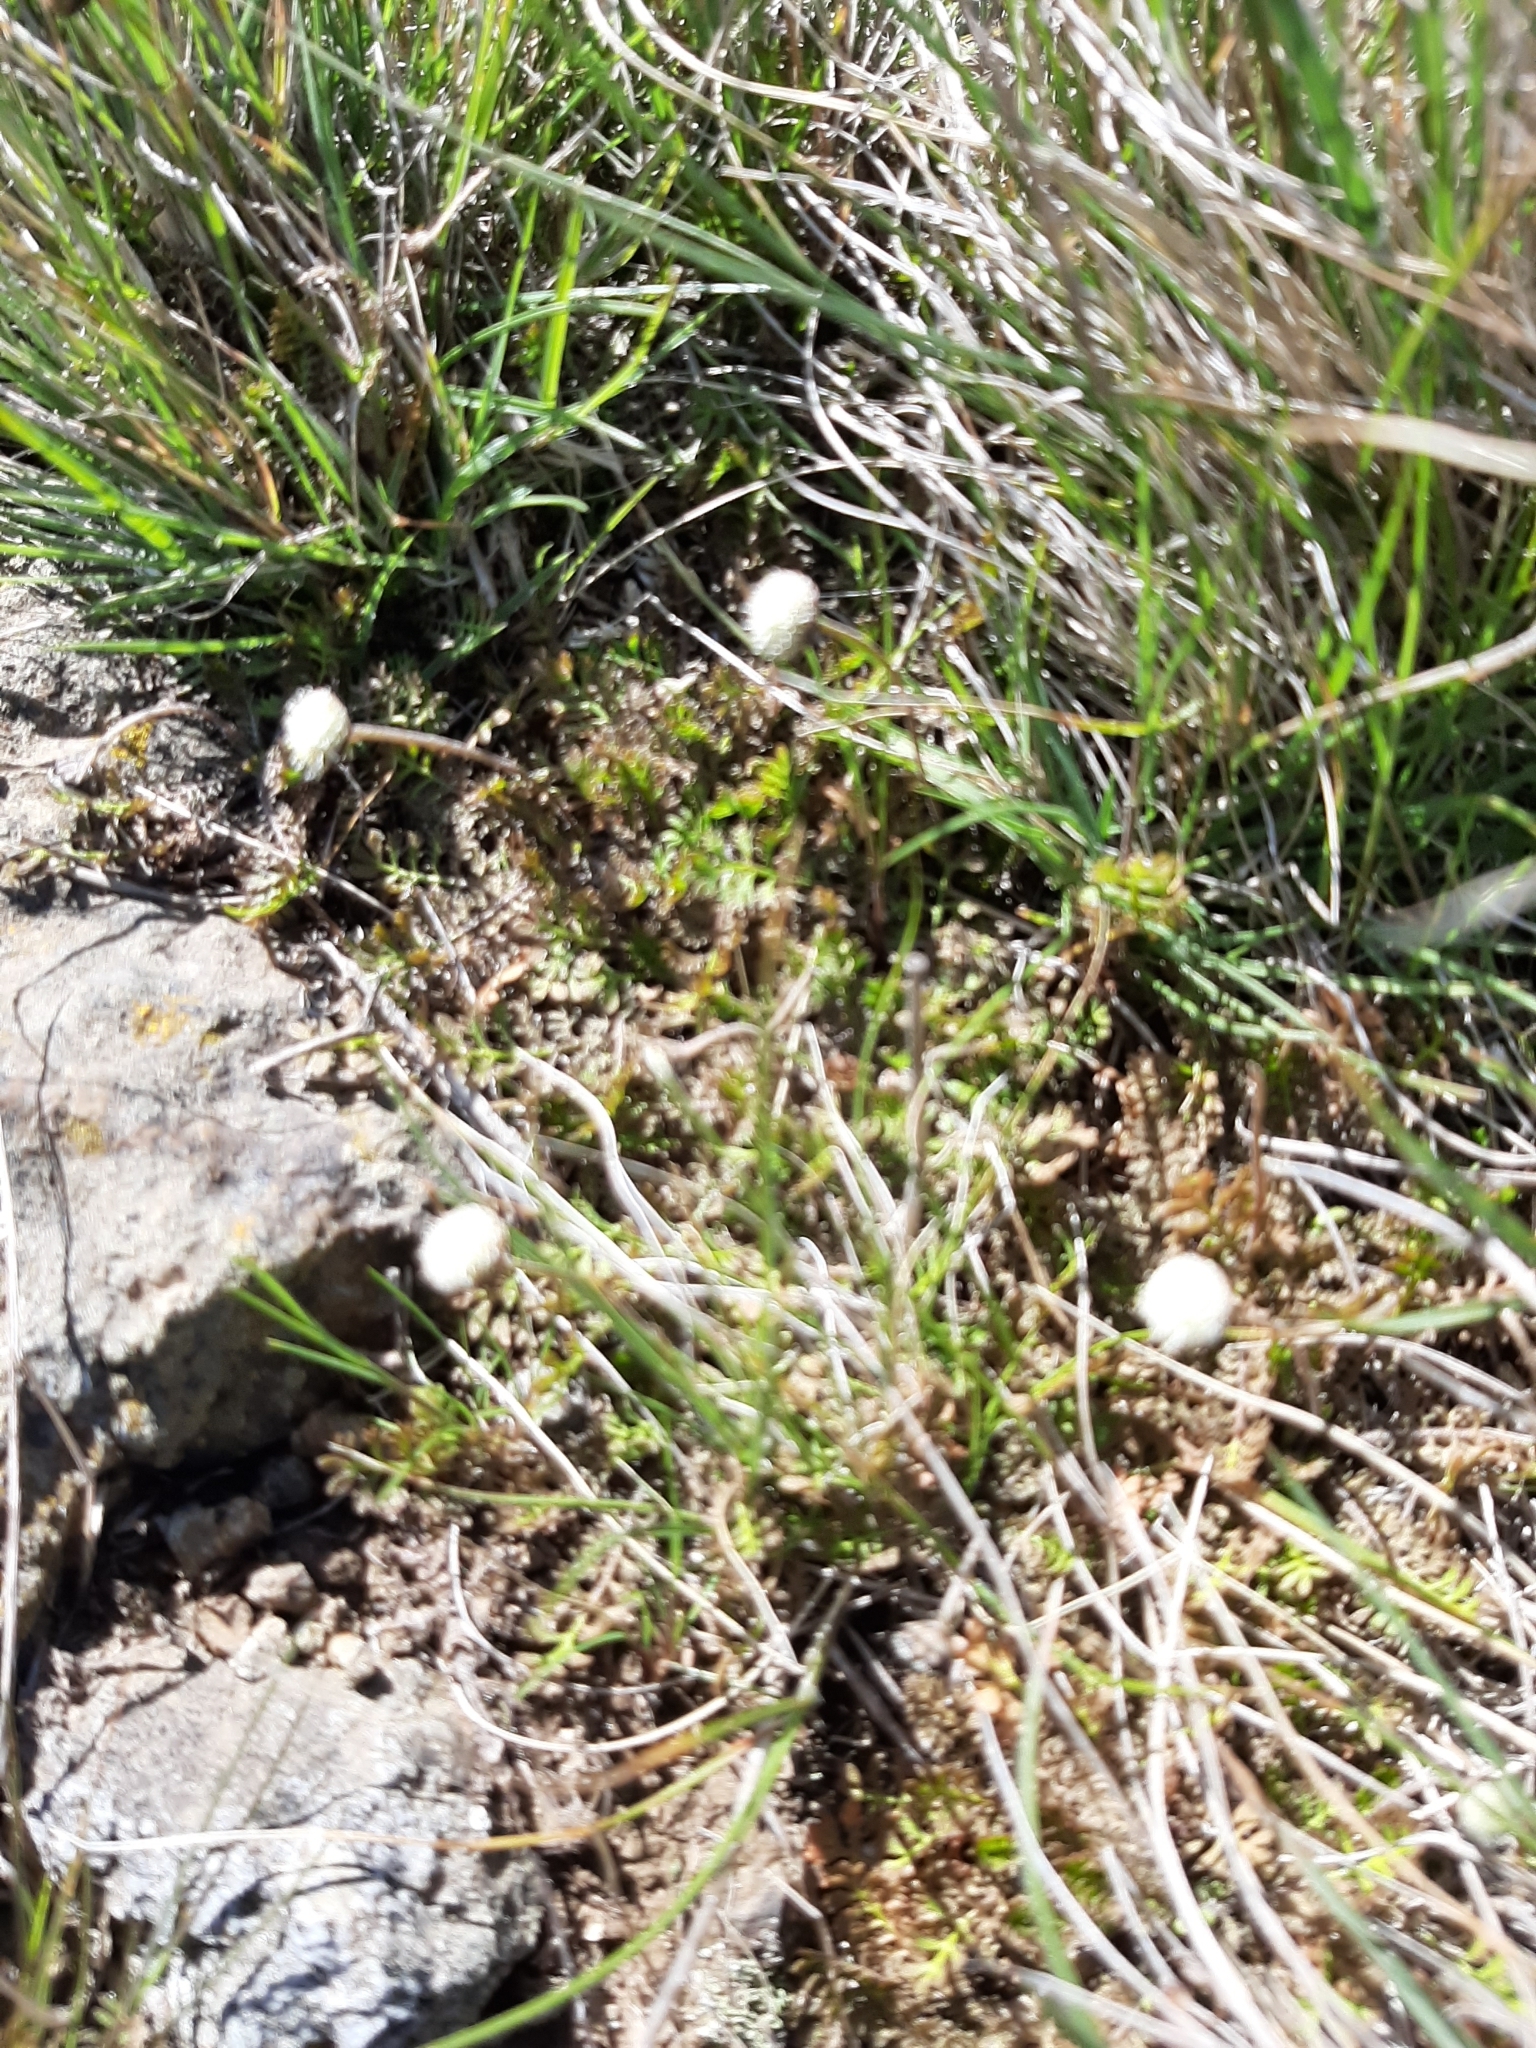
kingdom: Plantae
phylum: Tracheophyta
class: Magnoliopsida
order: Asterales
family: Asteraceae
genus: Leptinella
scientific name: Leptinella minor
